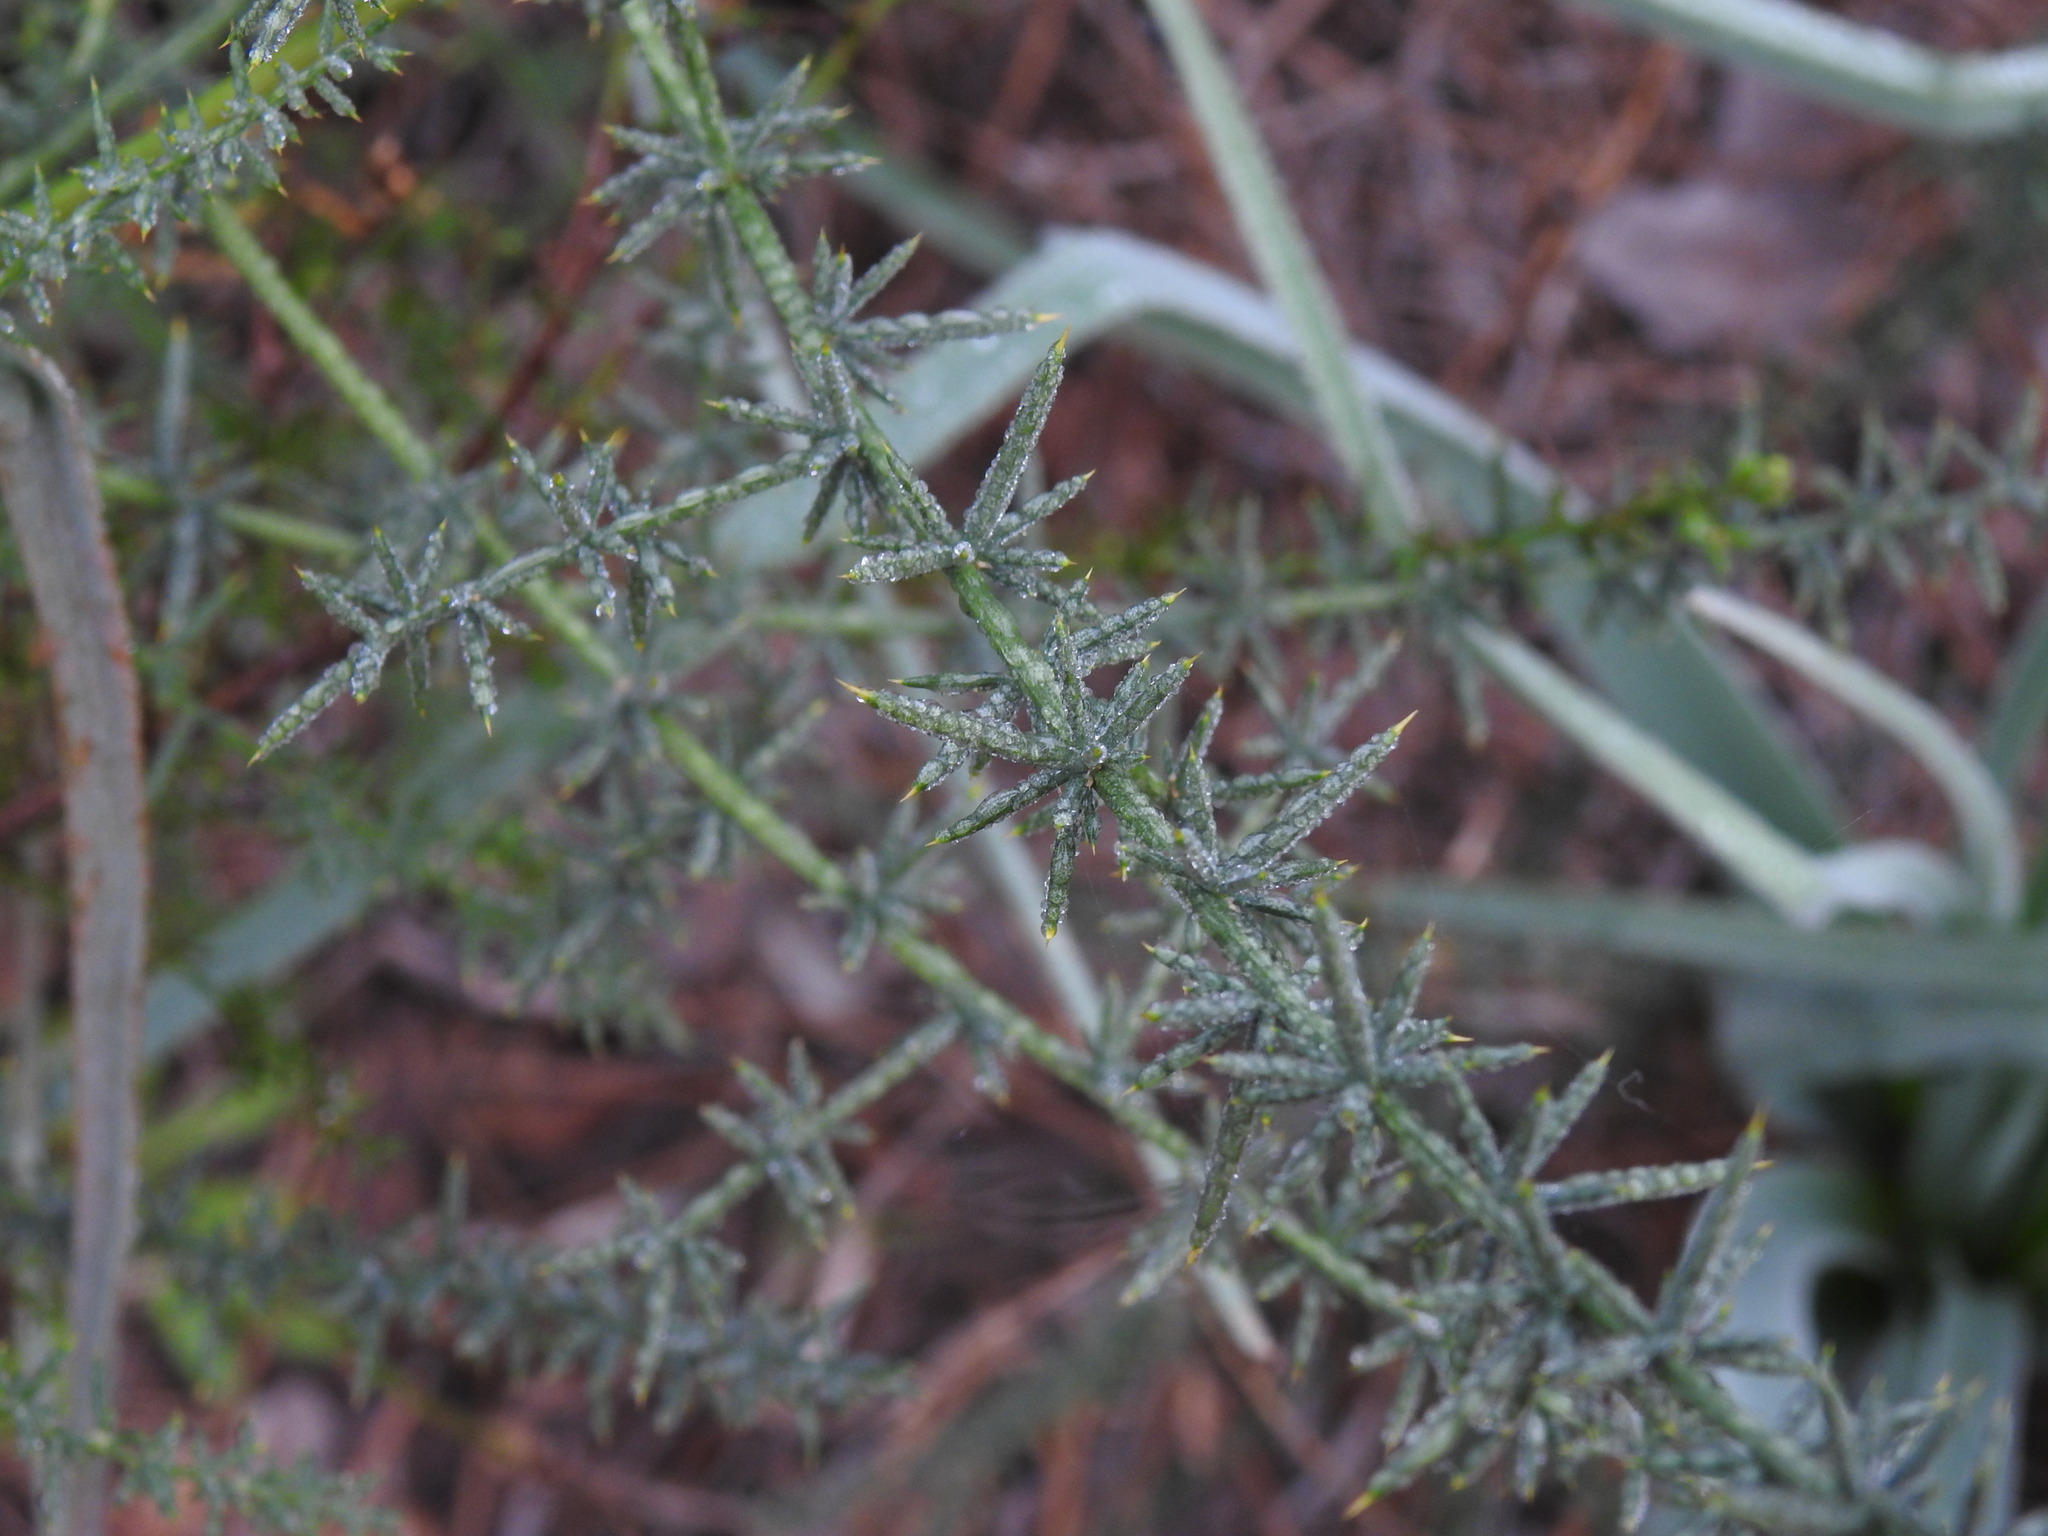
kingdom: Plantae
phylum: Tracheophyta
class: Liliopsida
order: Asparagales
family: Asparagaceae
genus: Asparagus
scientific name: Asparagus aphyllus
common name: Mediterranean asparagus
